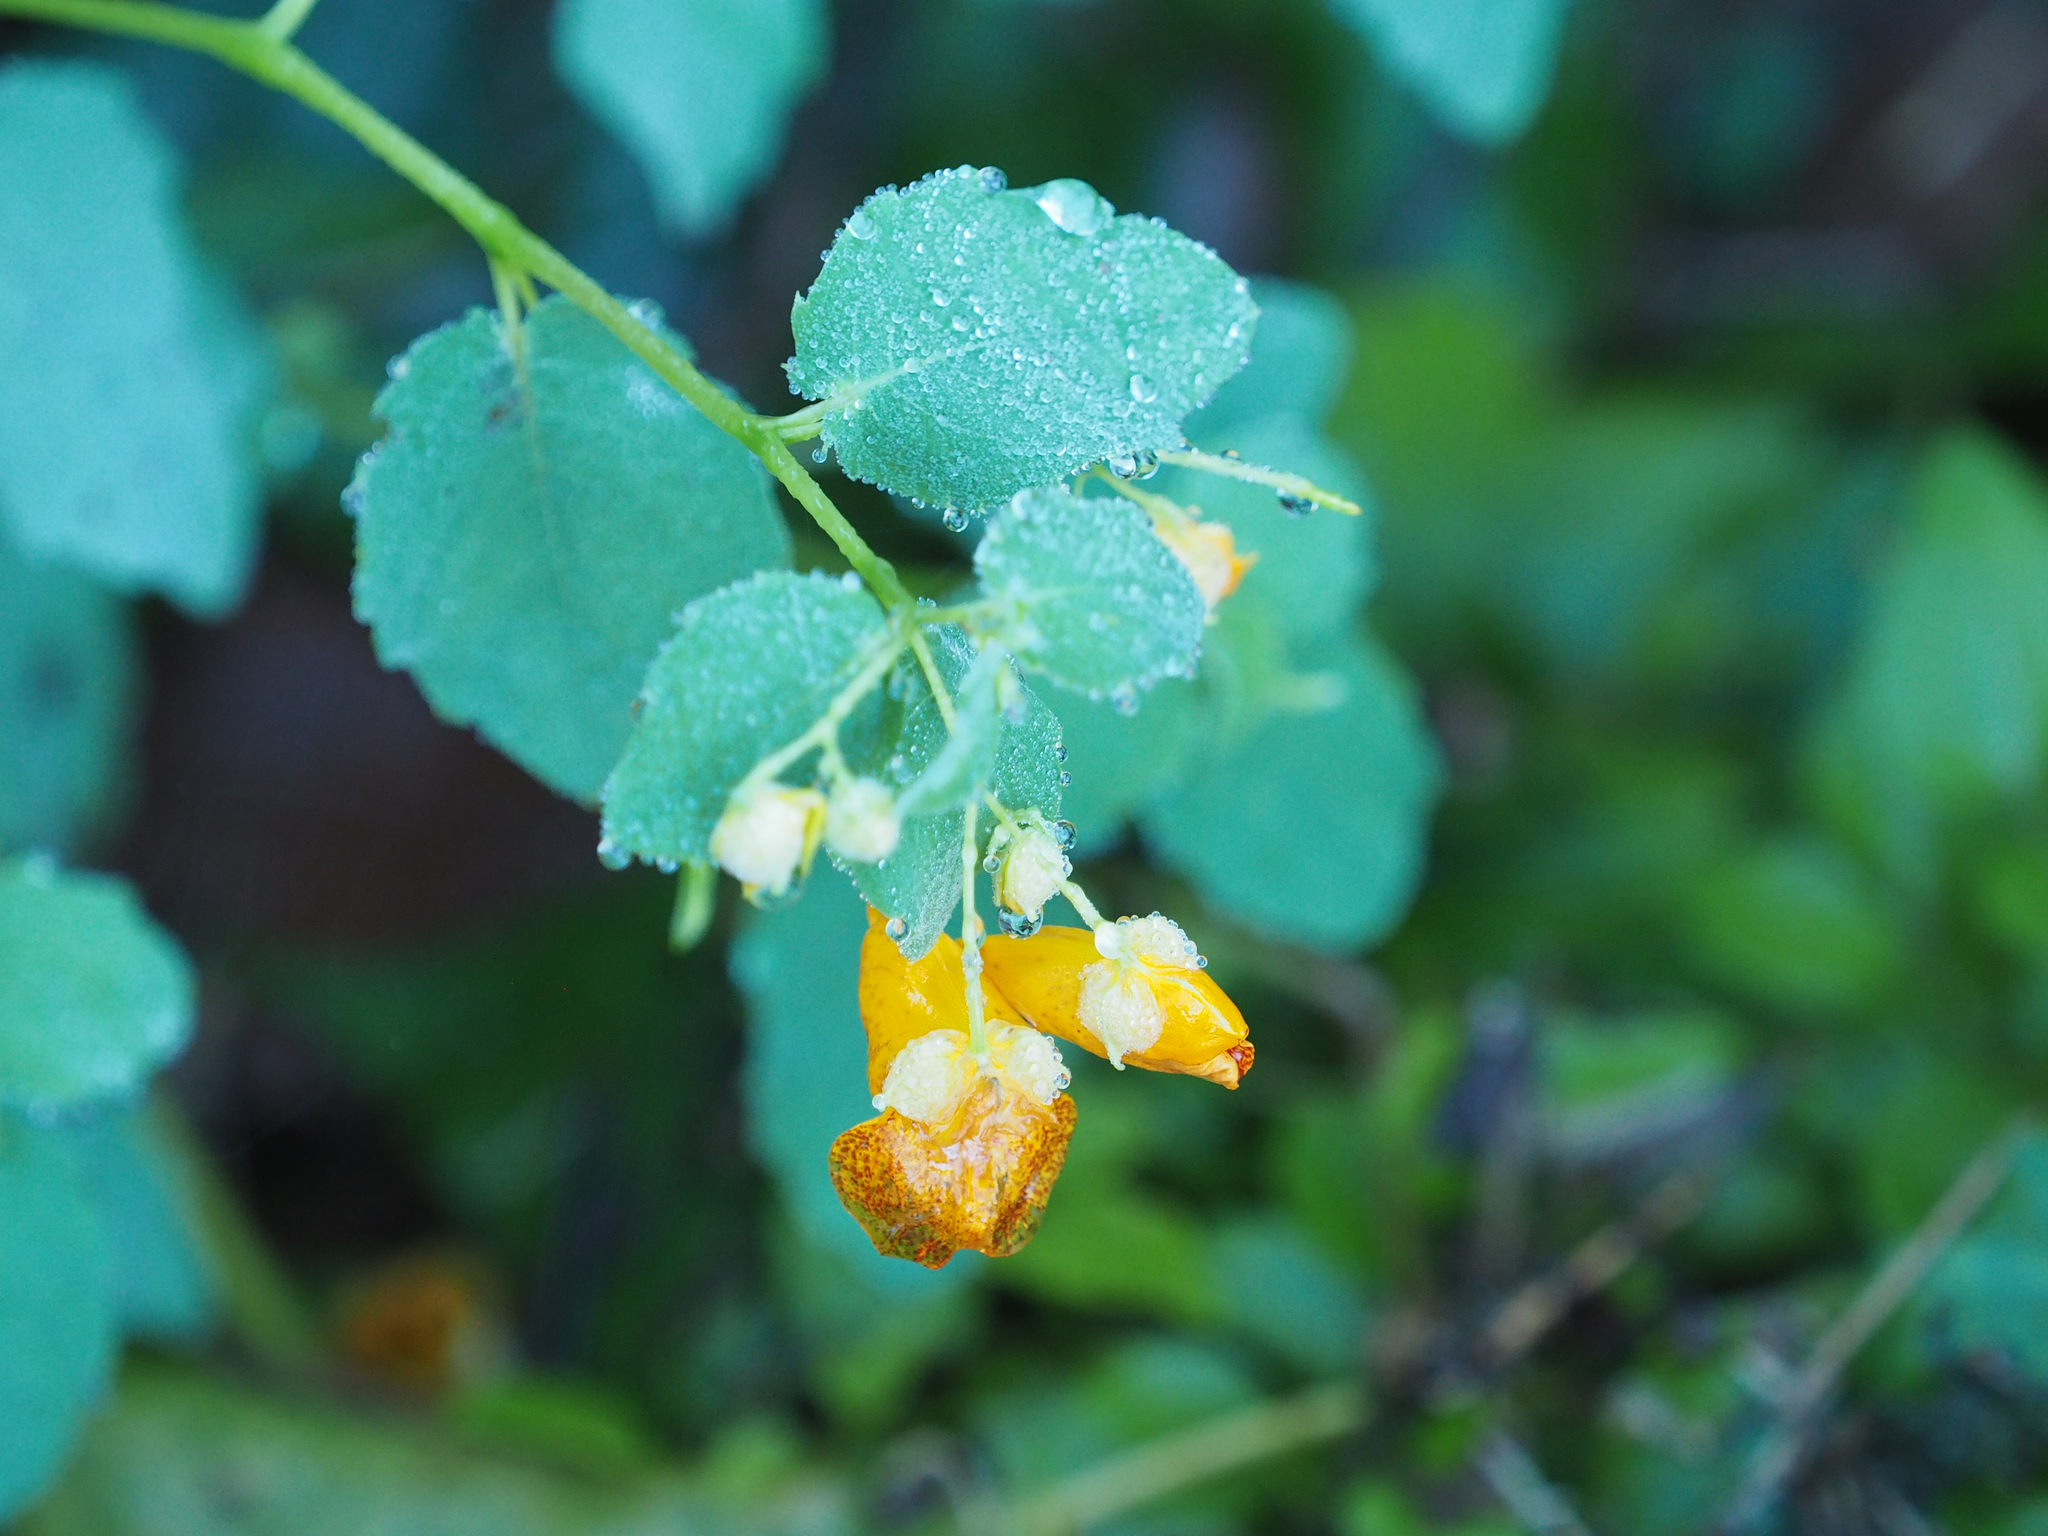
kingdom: Plantae
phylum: Tracheophyta
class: Magnoliopsida
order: Ericales
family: Balsaminaceae
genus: Impatiens
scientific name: Impatiens capensis
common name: Orange balsam
